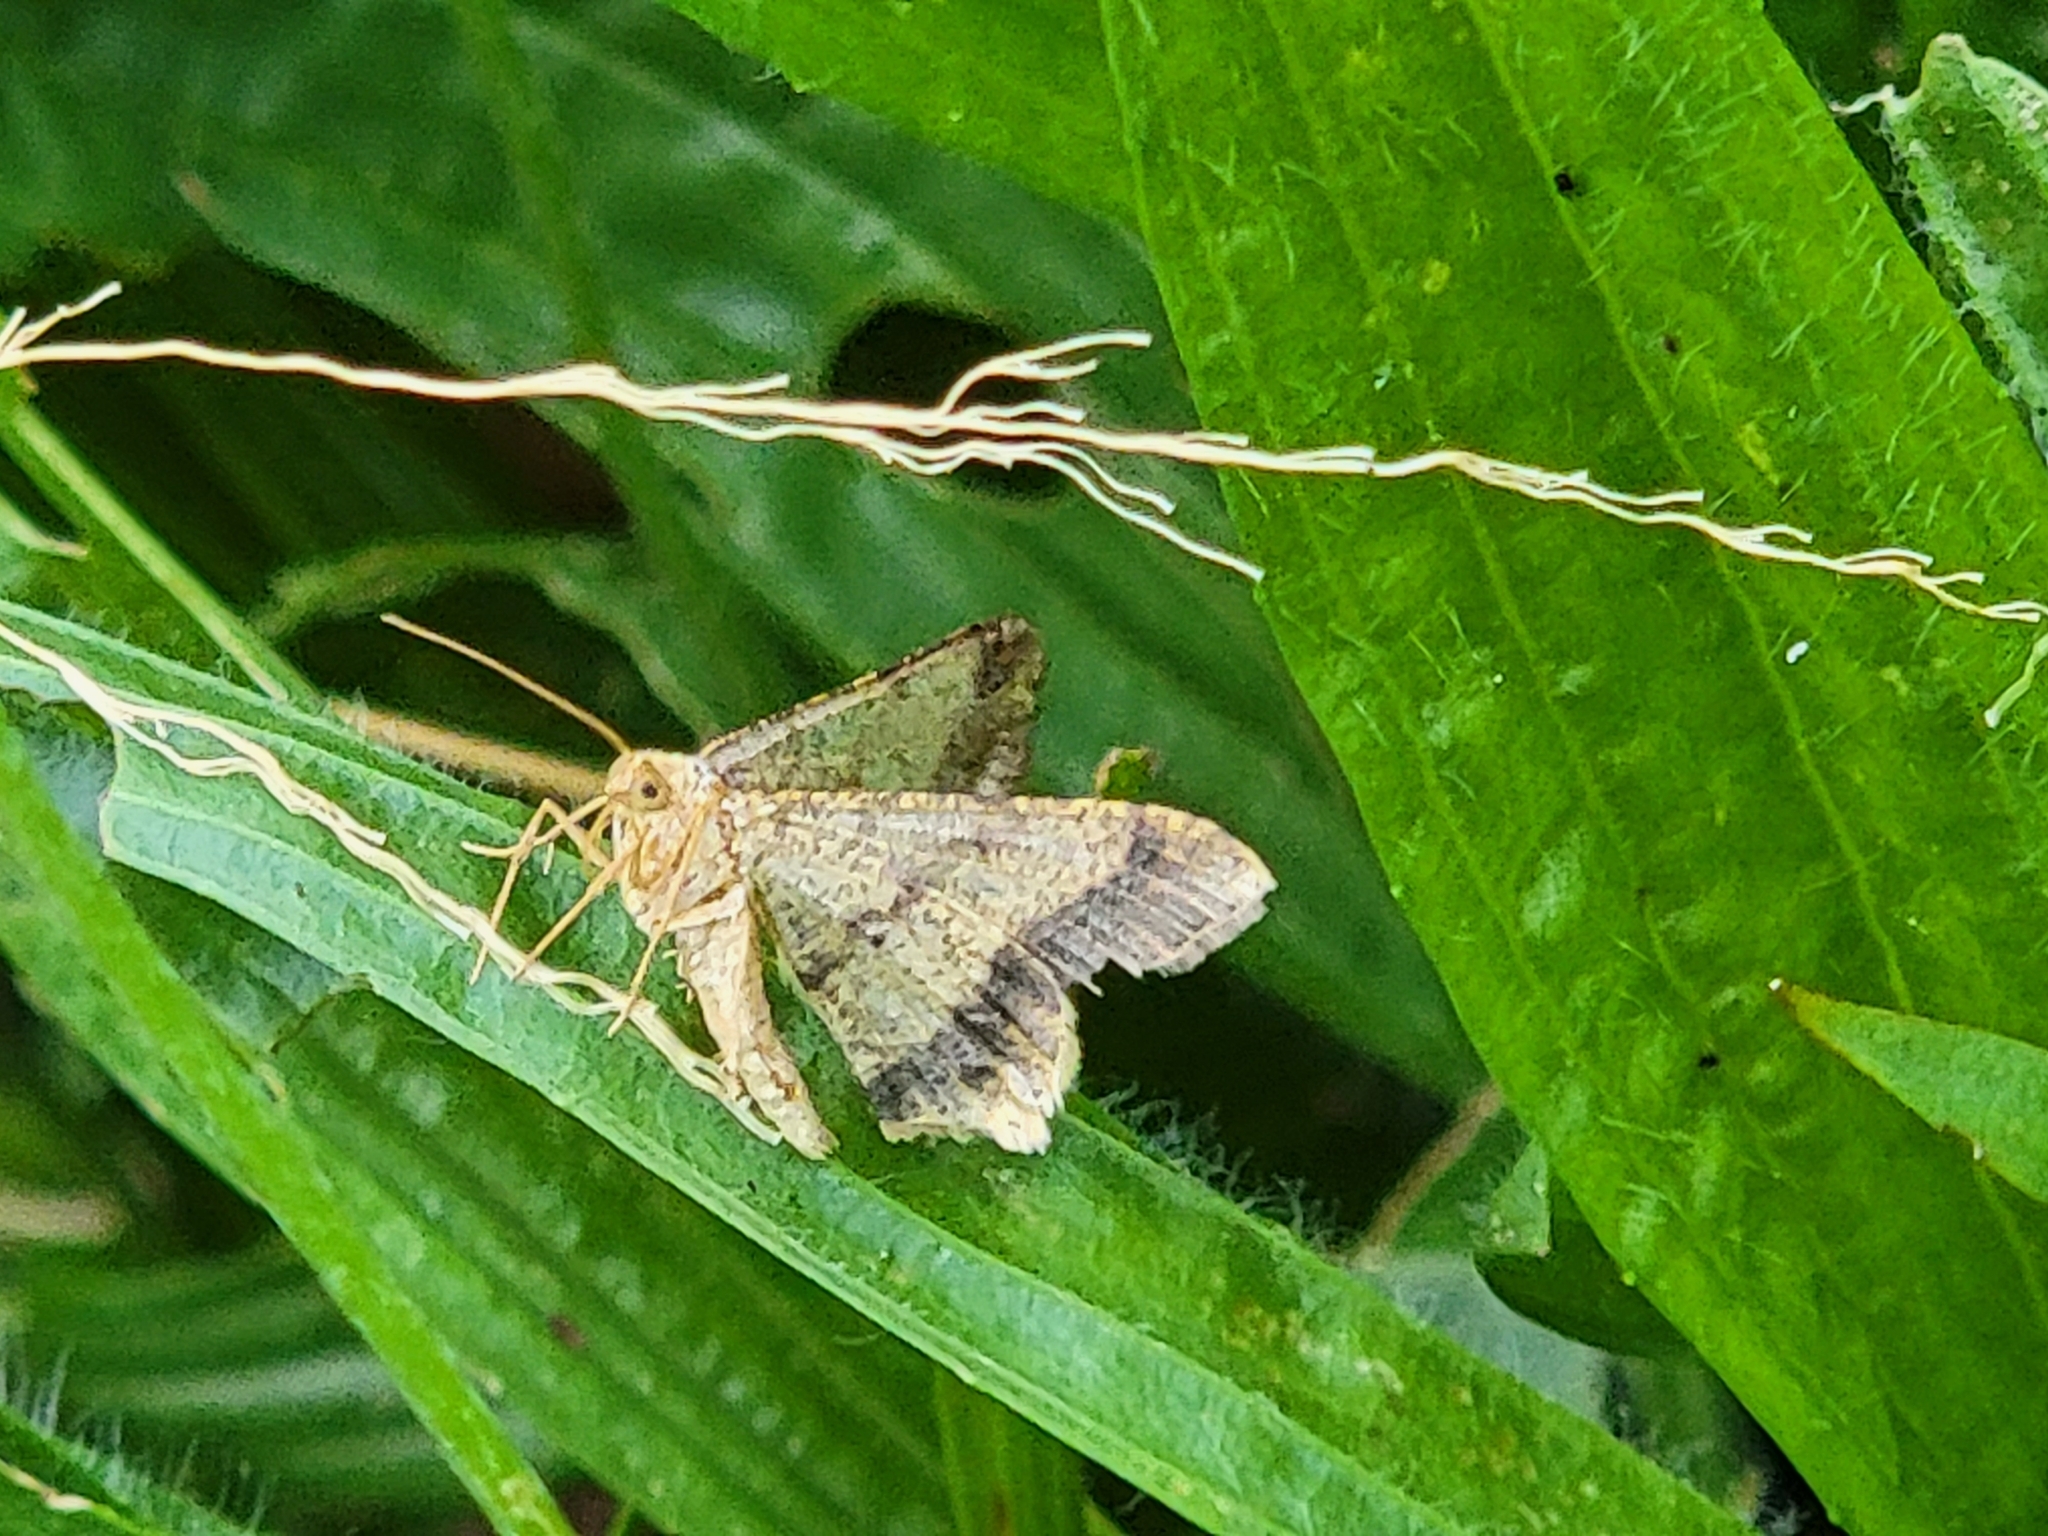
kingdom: Animalia
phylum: Arthropoda
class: Insecta
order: Lepidoptera
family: Geometridae
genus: Macaria
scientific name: Macaria abydata
